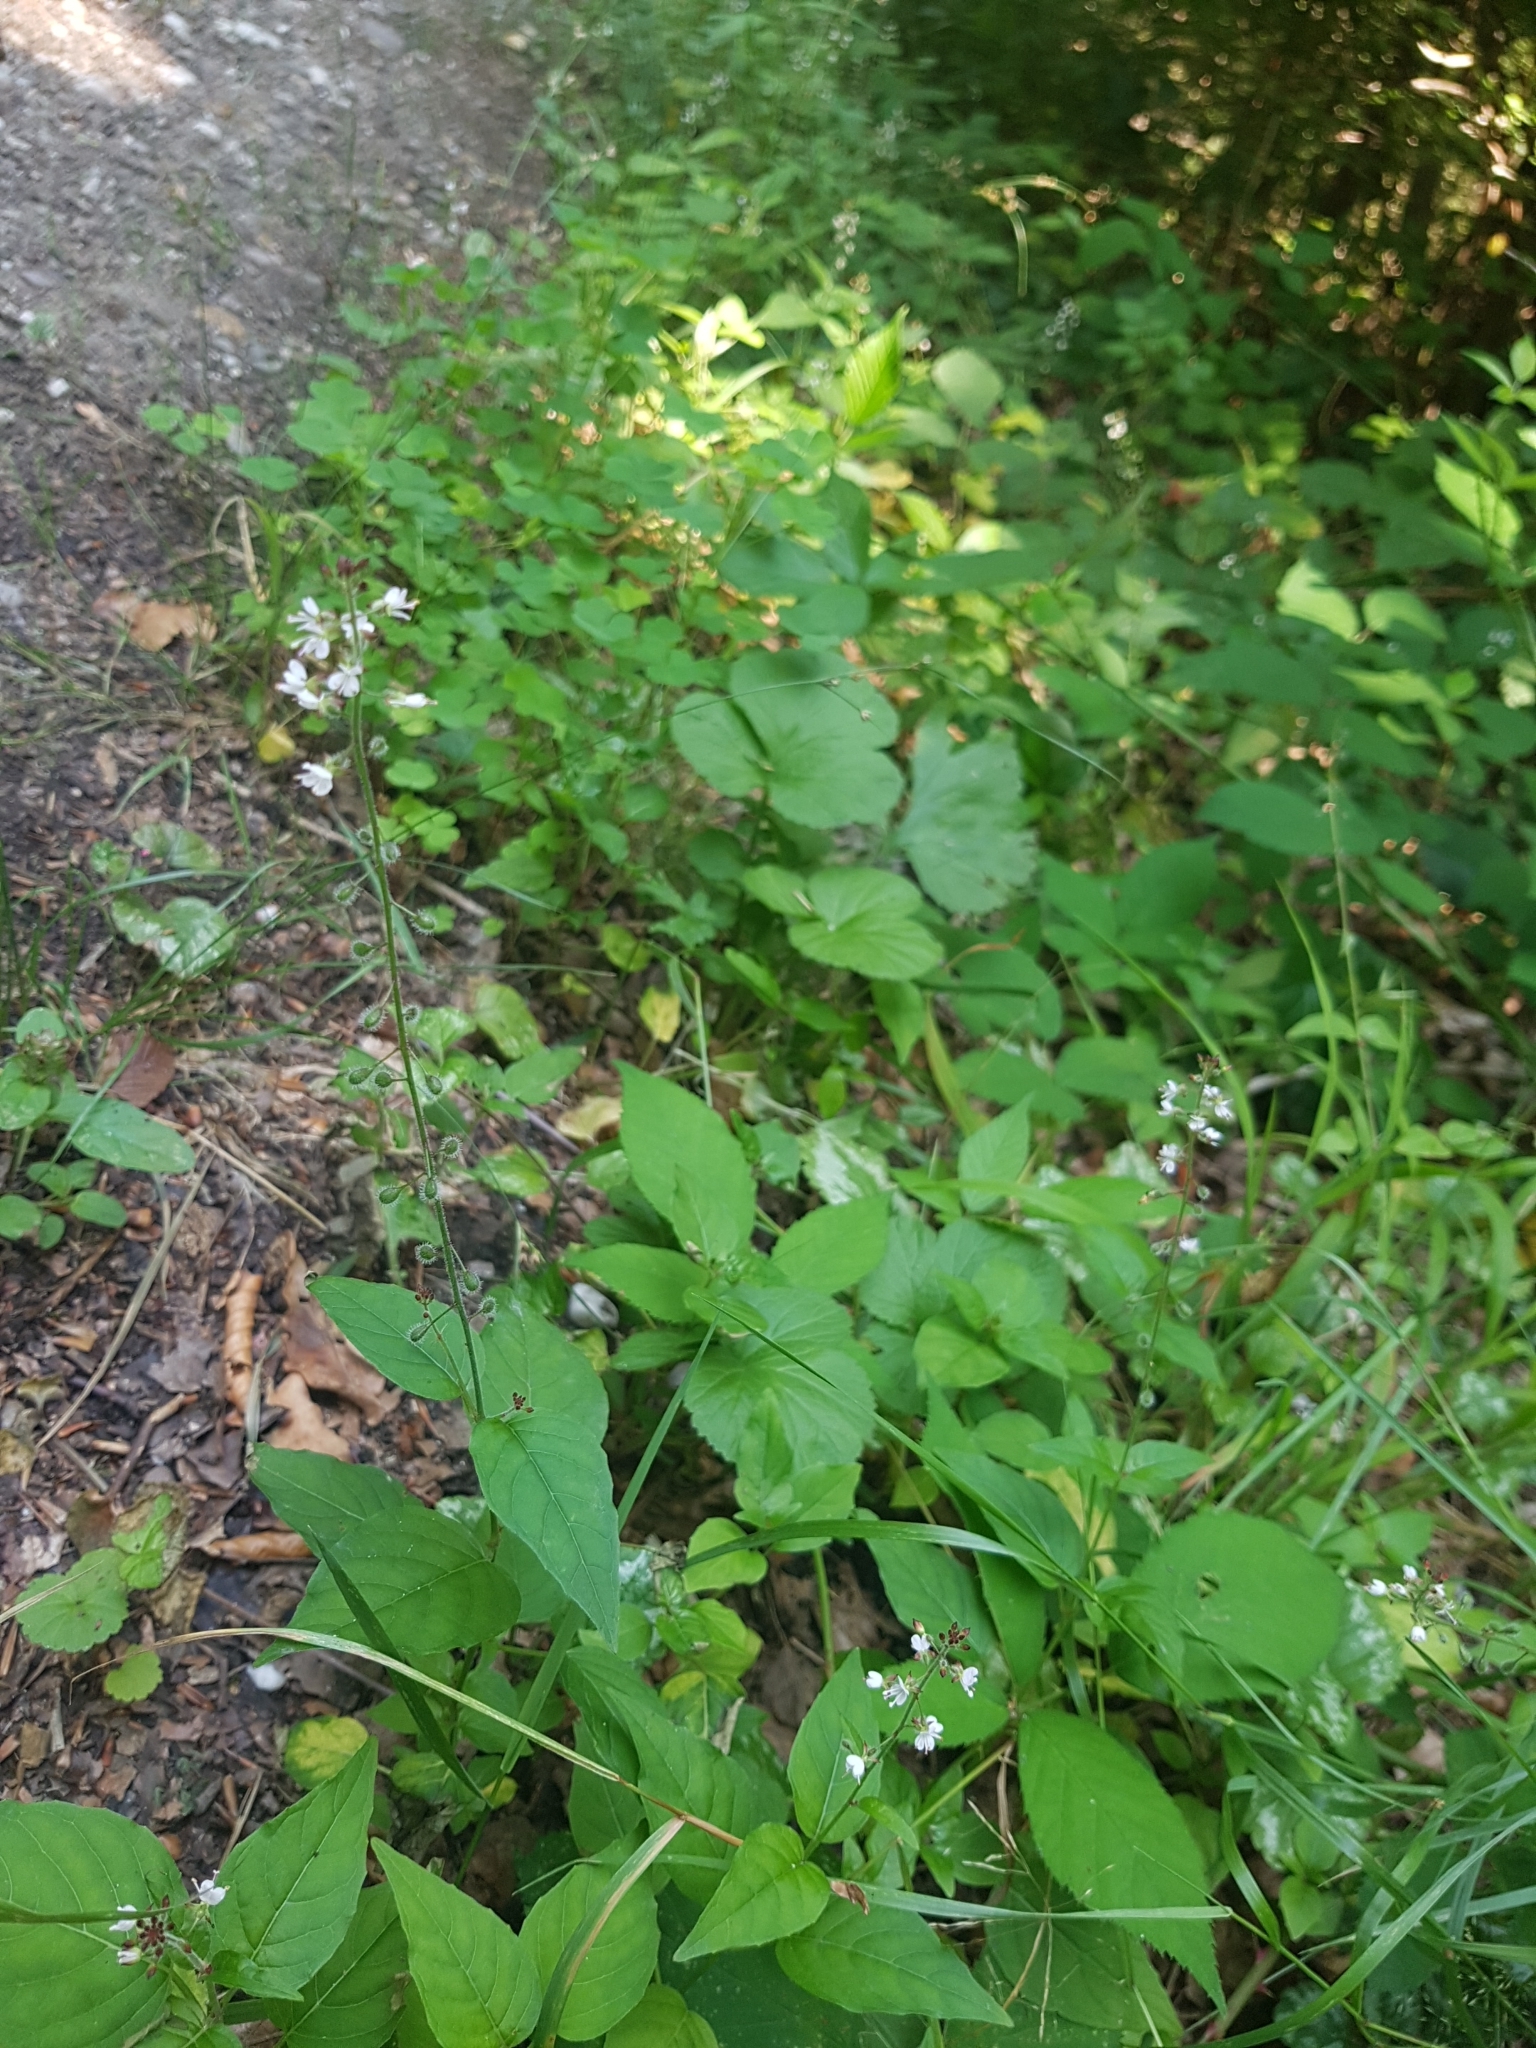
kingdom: Plantae
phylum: Tracheophyta
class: Magnoliopsida
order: Myrtales
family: Onagraceae
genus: Circaea
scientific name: Circaea lutetiana
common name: Enchanter's-nightshade
